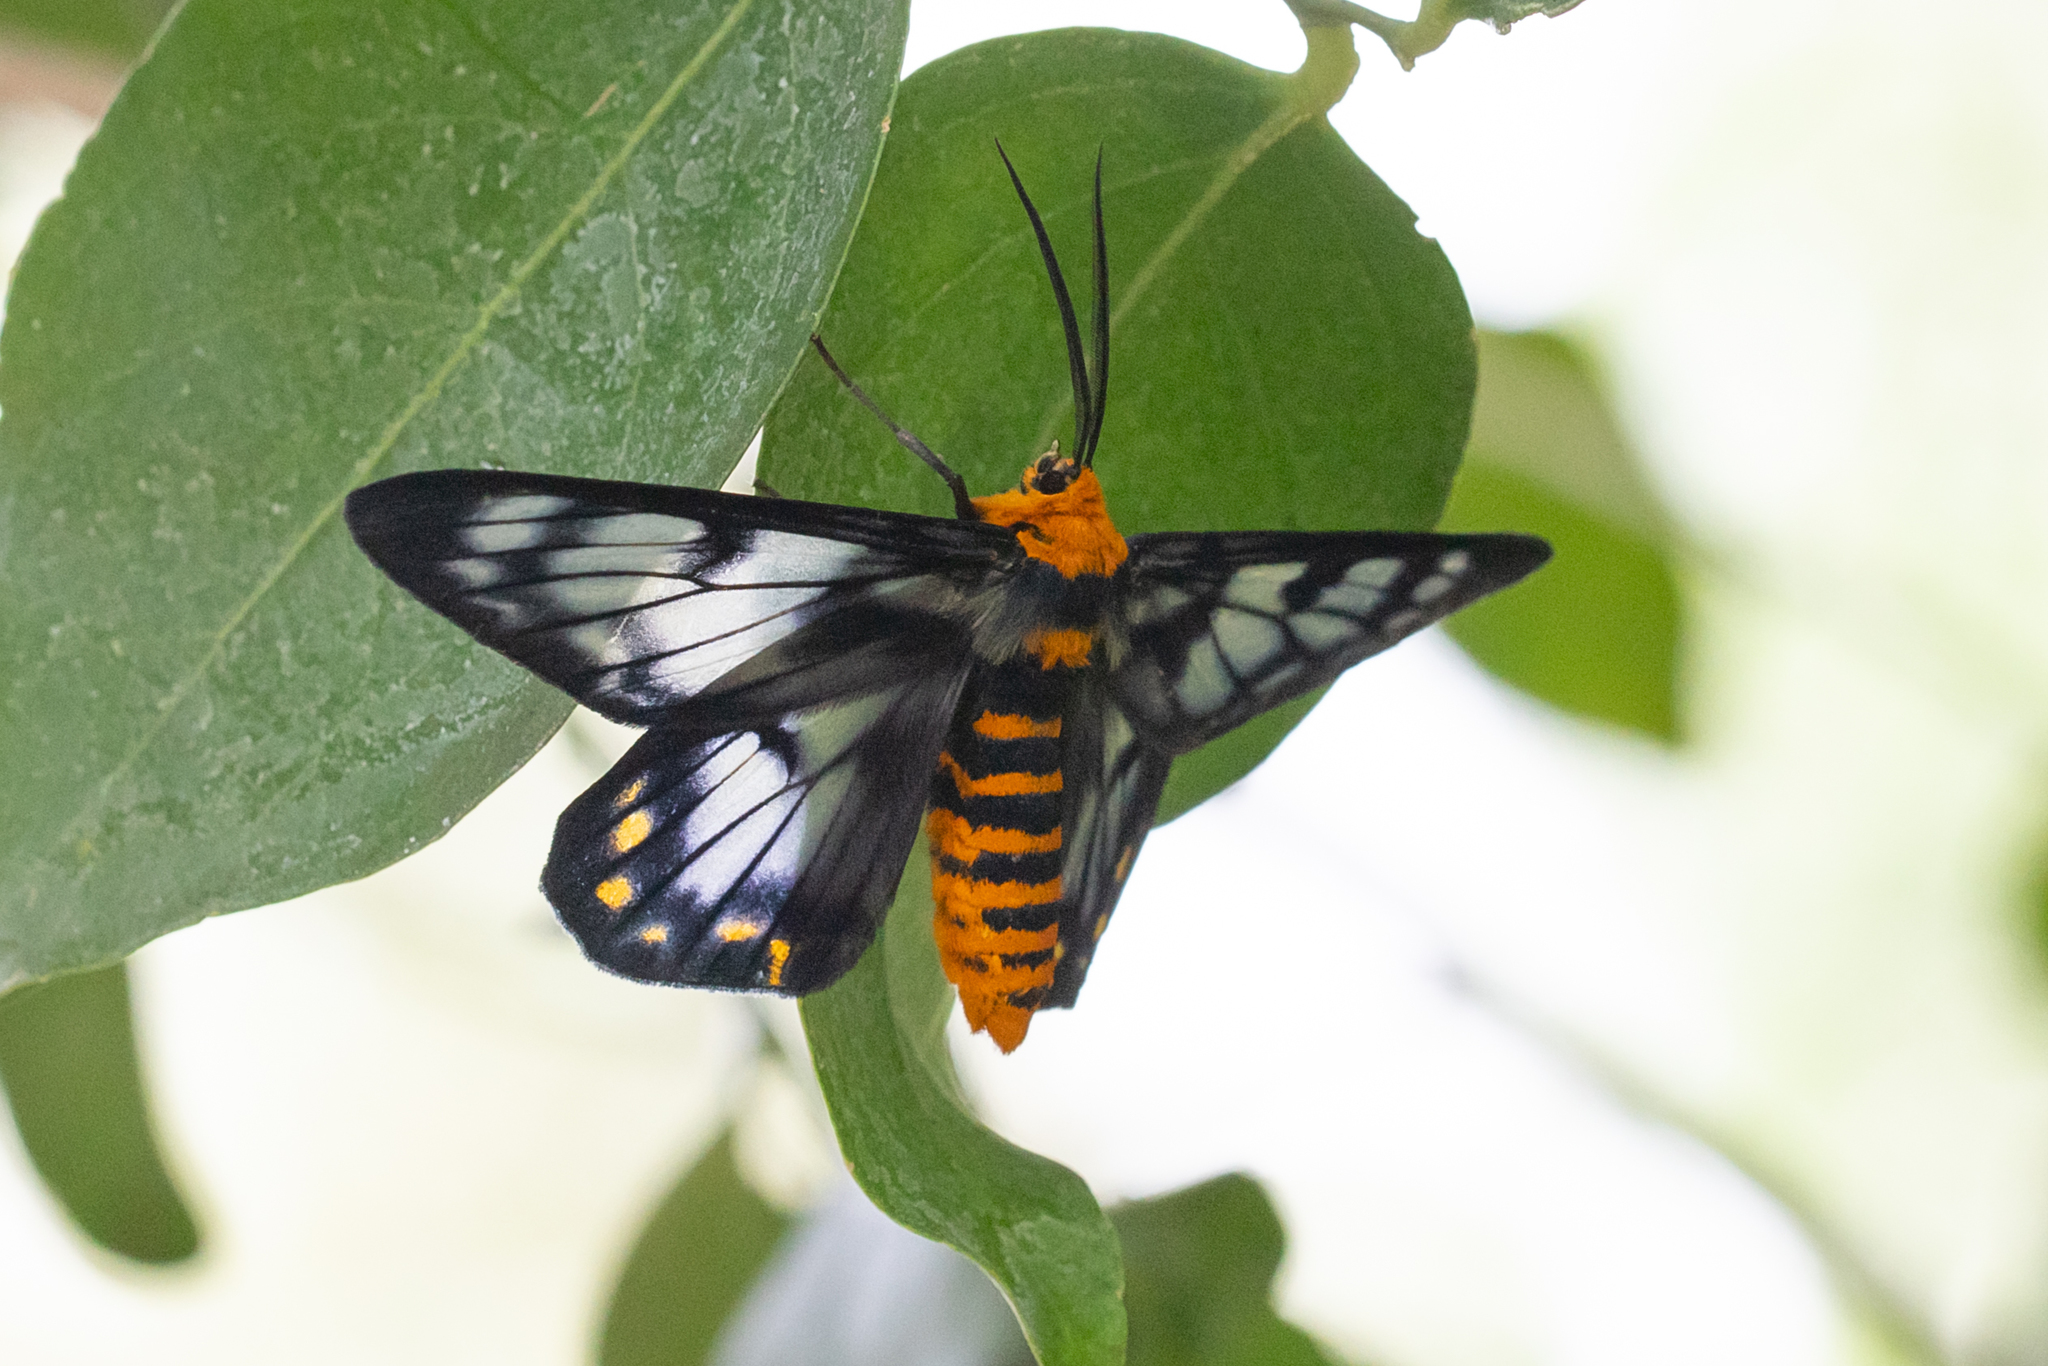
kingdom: Animalia
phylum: Arthropoda
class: Insecta
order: Lepidoptera
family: Geometridae
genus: Dysphania
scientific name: Dysphania numana
